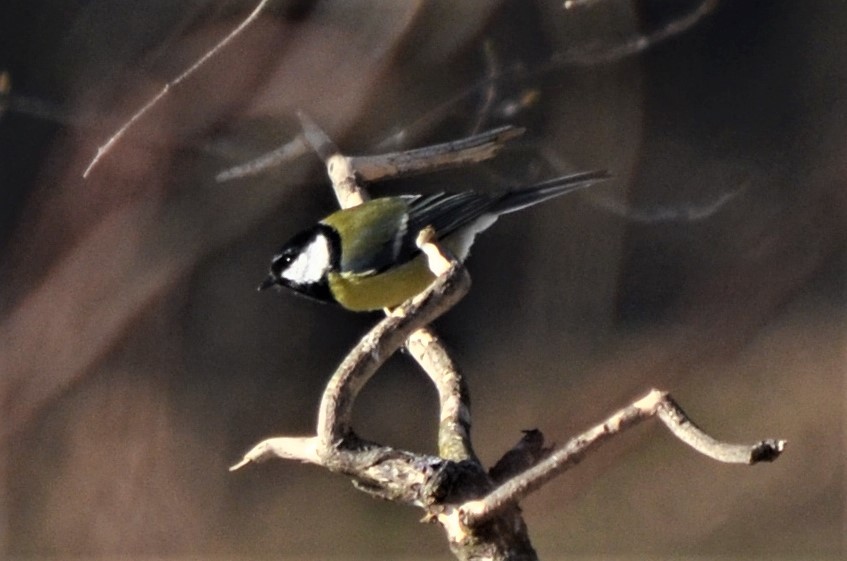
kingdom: Animalia
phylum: Chordata
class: Aves
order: Passeriformes
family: Paridae
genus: Parus
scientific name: Parus major
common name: Great tit
